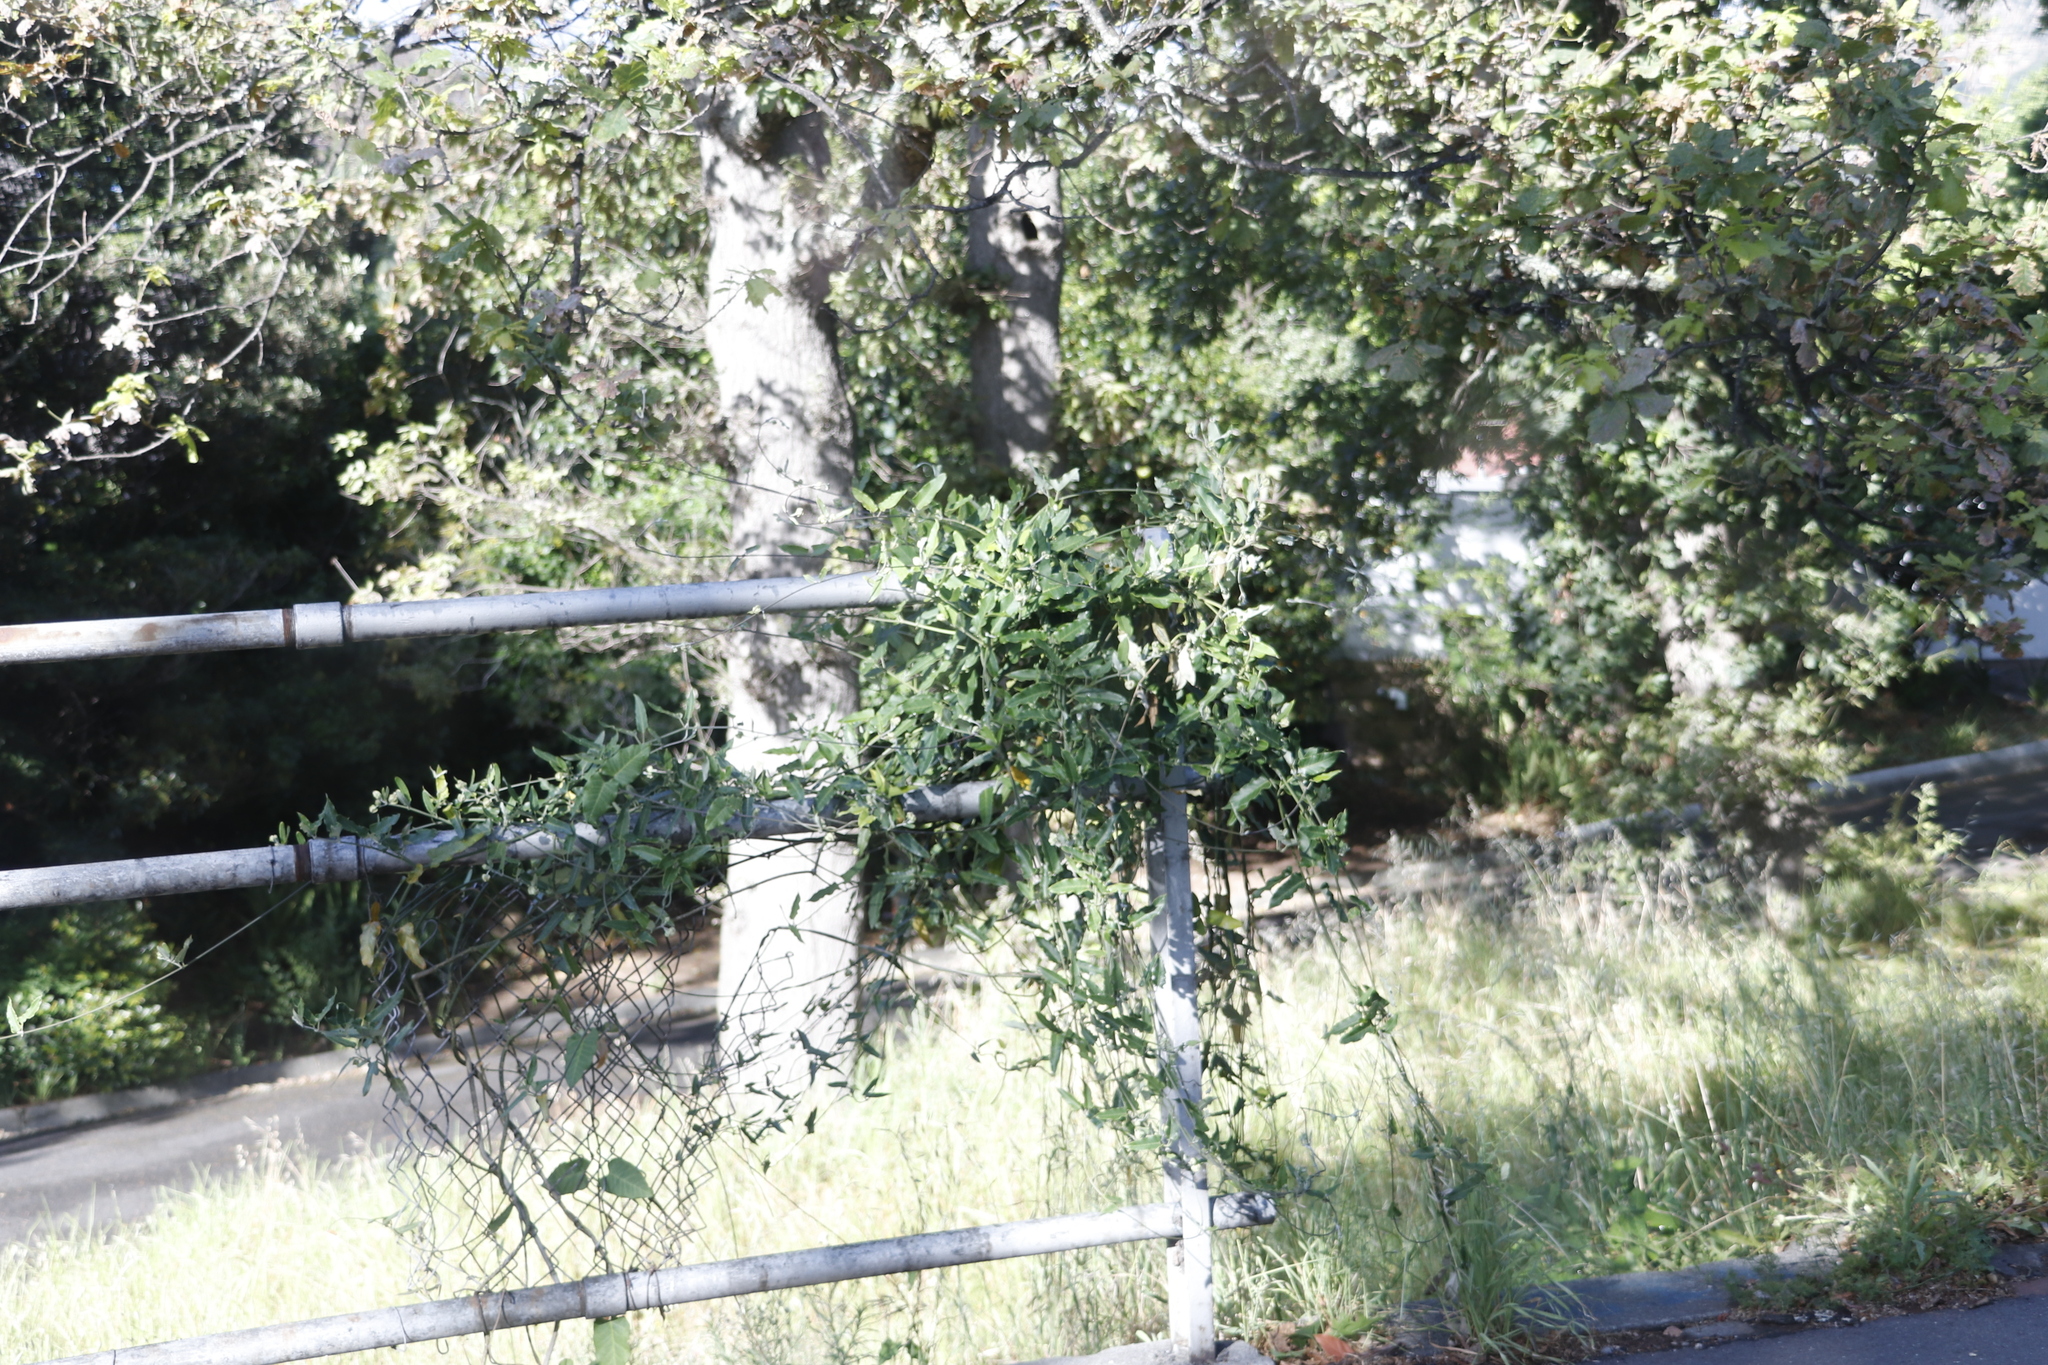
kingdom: Plantae
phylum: Tracheophyta
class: Magnoliopsida
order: Gentianales
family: Apocynaceae
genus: Araujia
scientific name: Araujia sericifera
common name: White bladderflower
